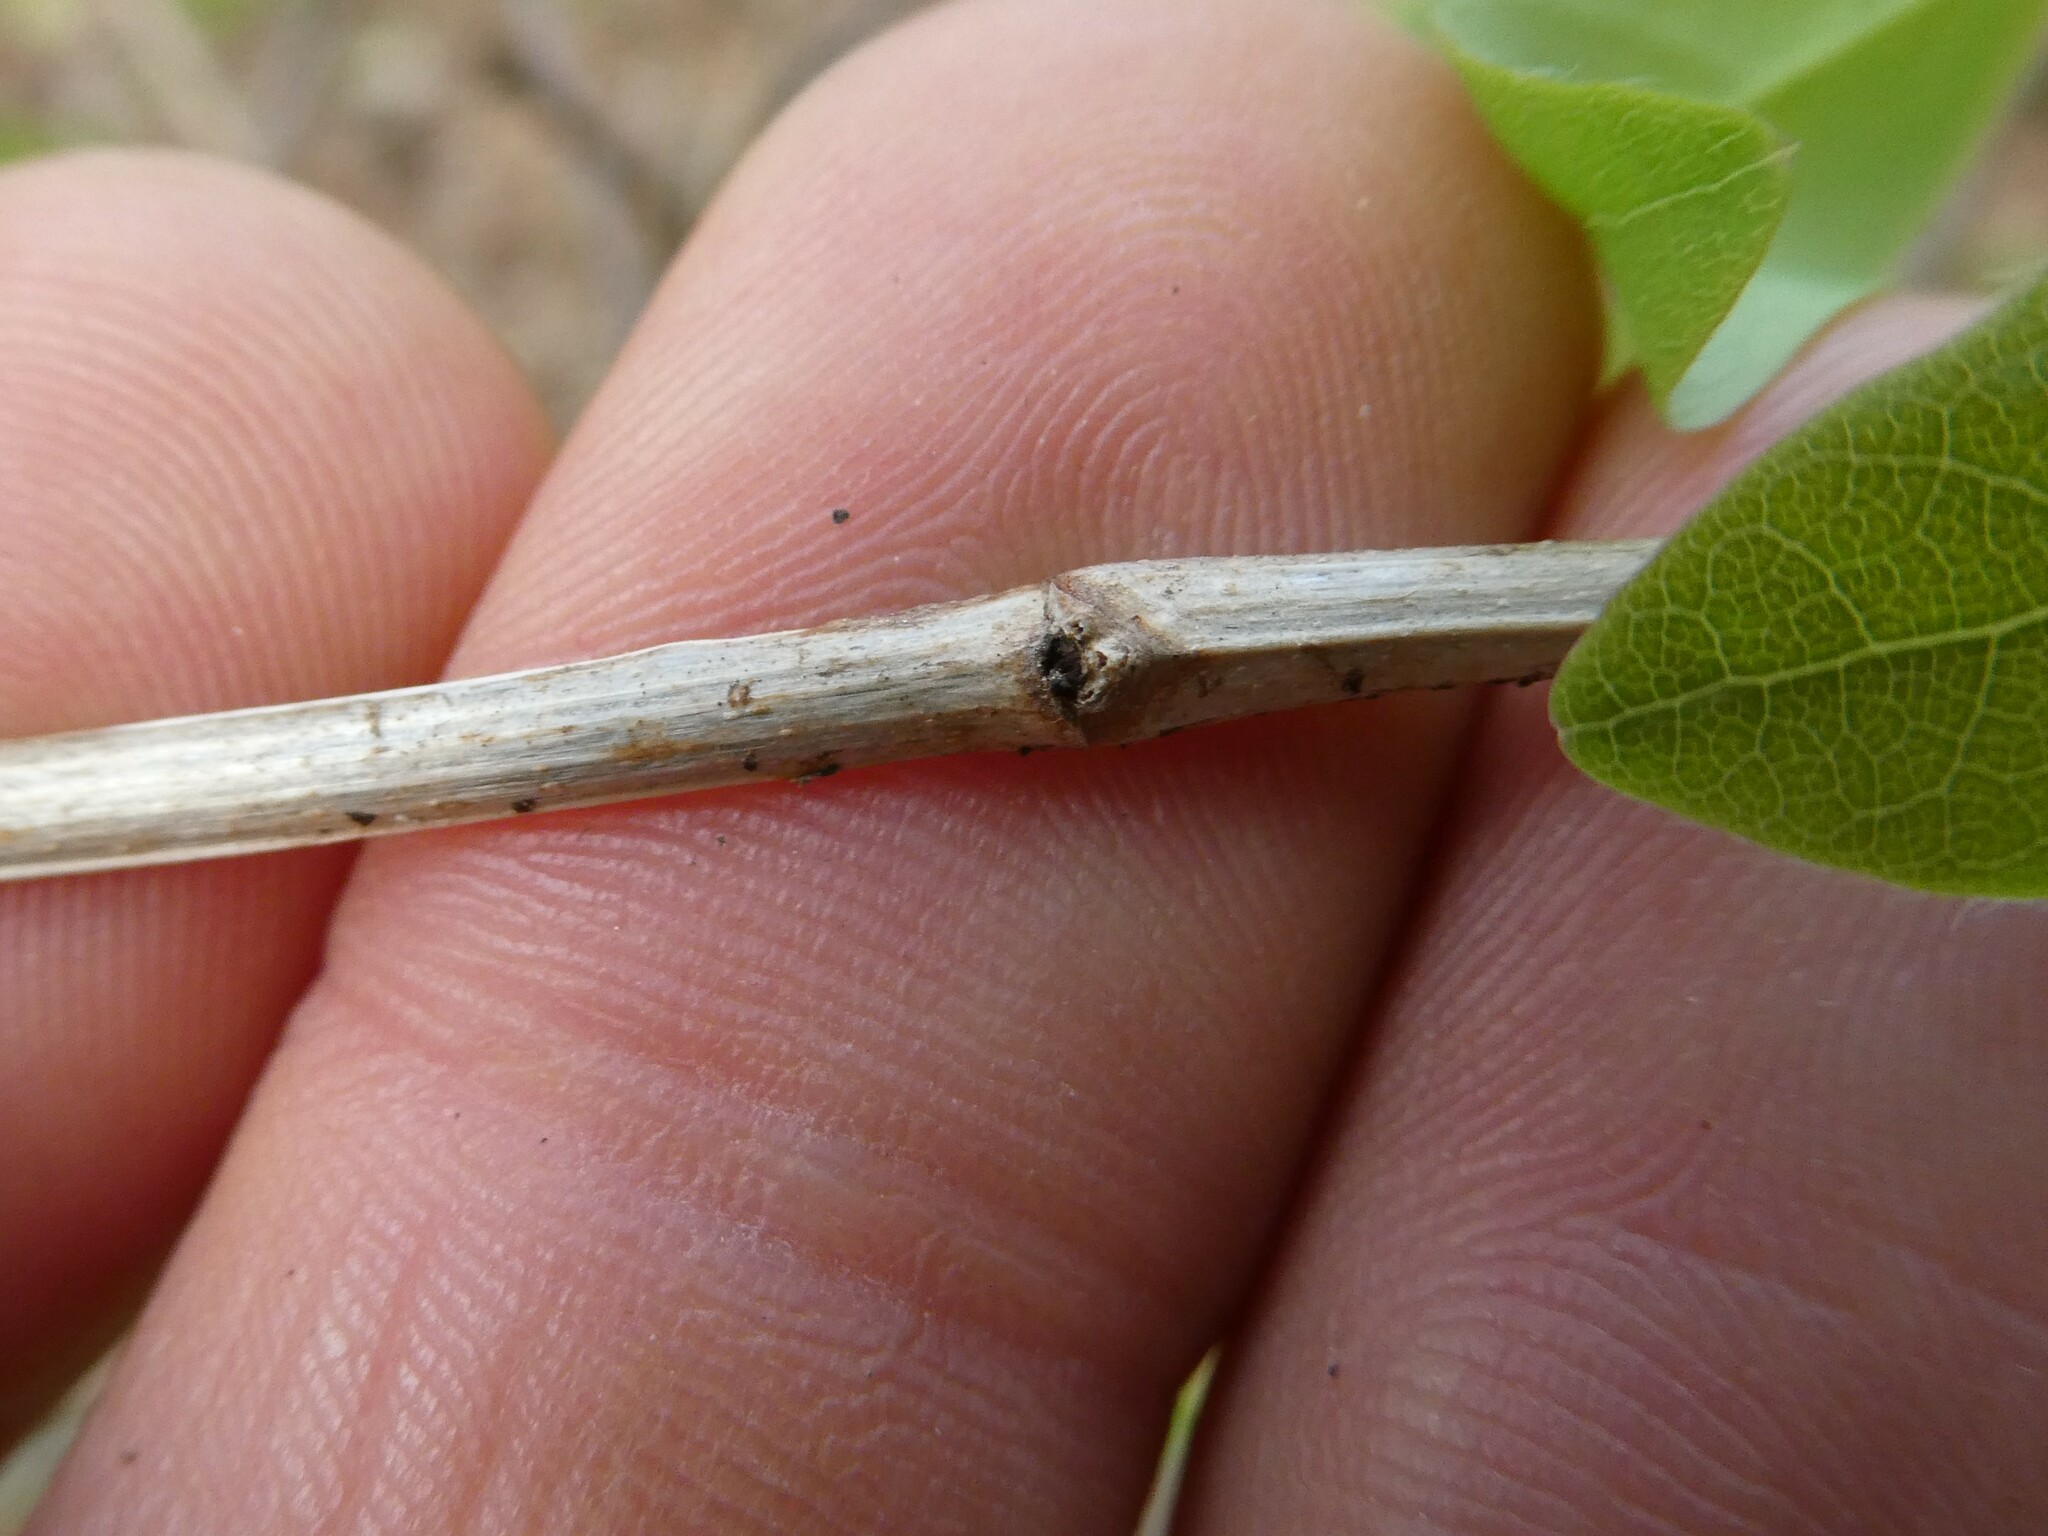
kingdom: Plantae
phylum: Tracheophyta
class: Magnoliopsida
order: Dipsacales
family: Caprifoliaceae
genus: Lonicera
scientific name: Lonicera canadensis
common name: American fly-honeysuckle
